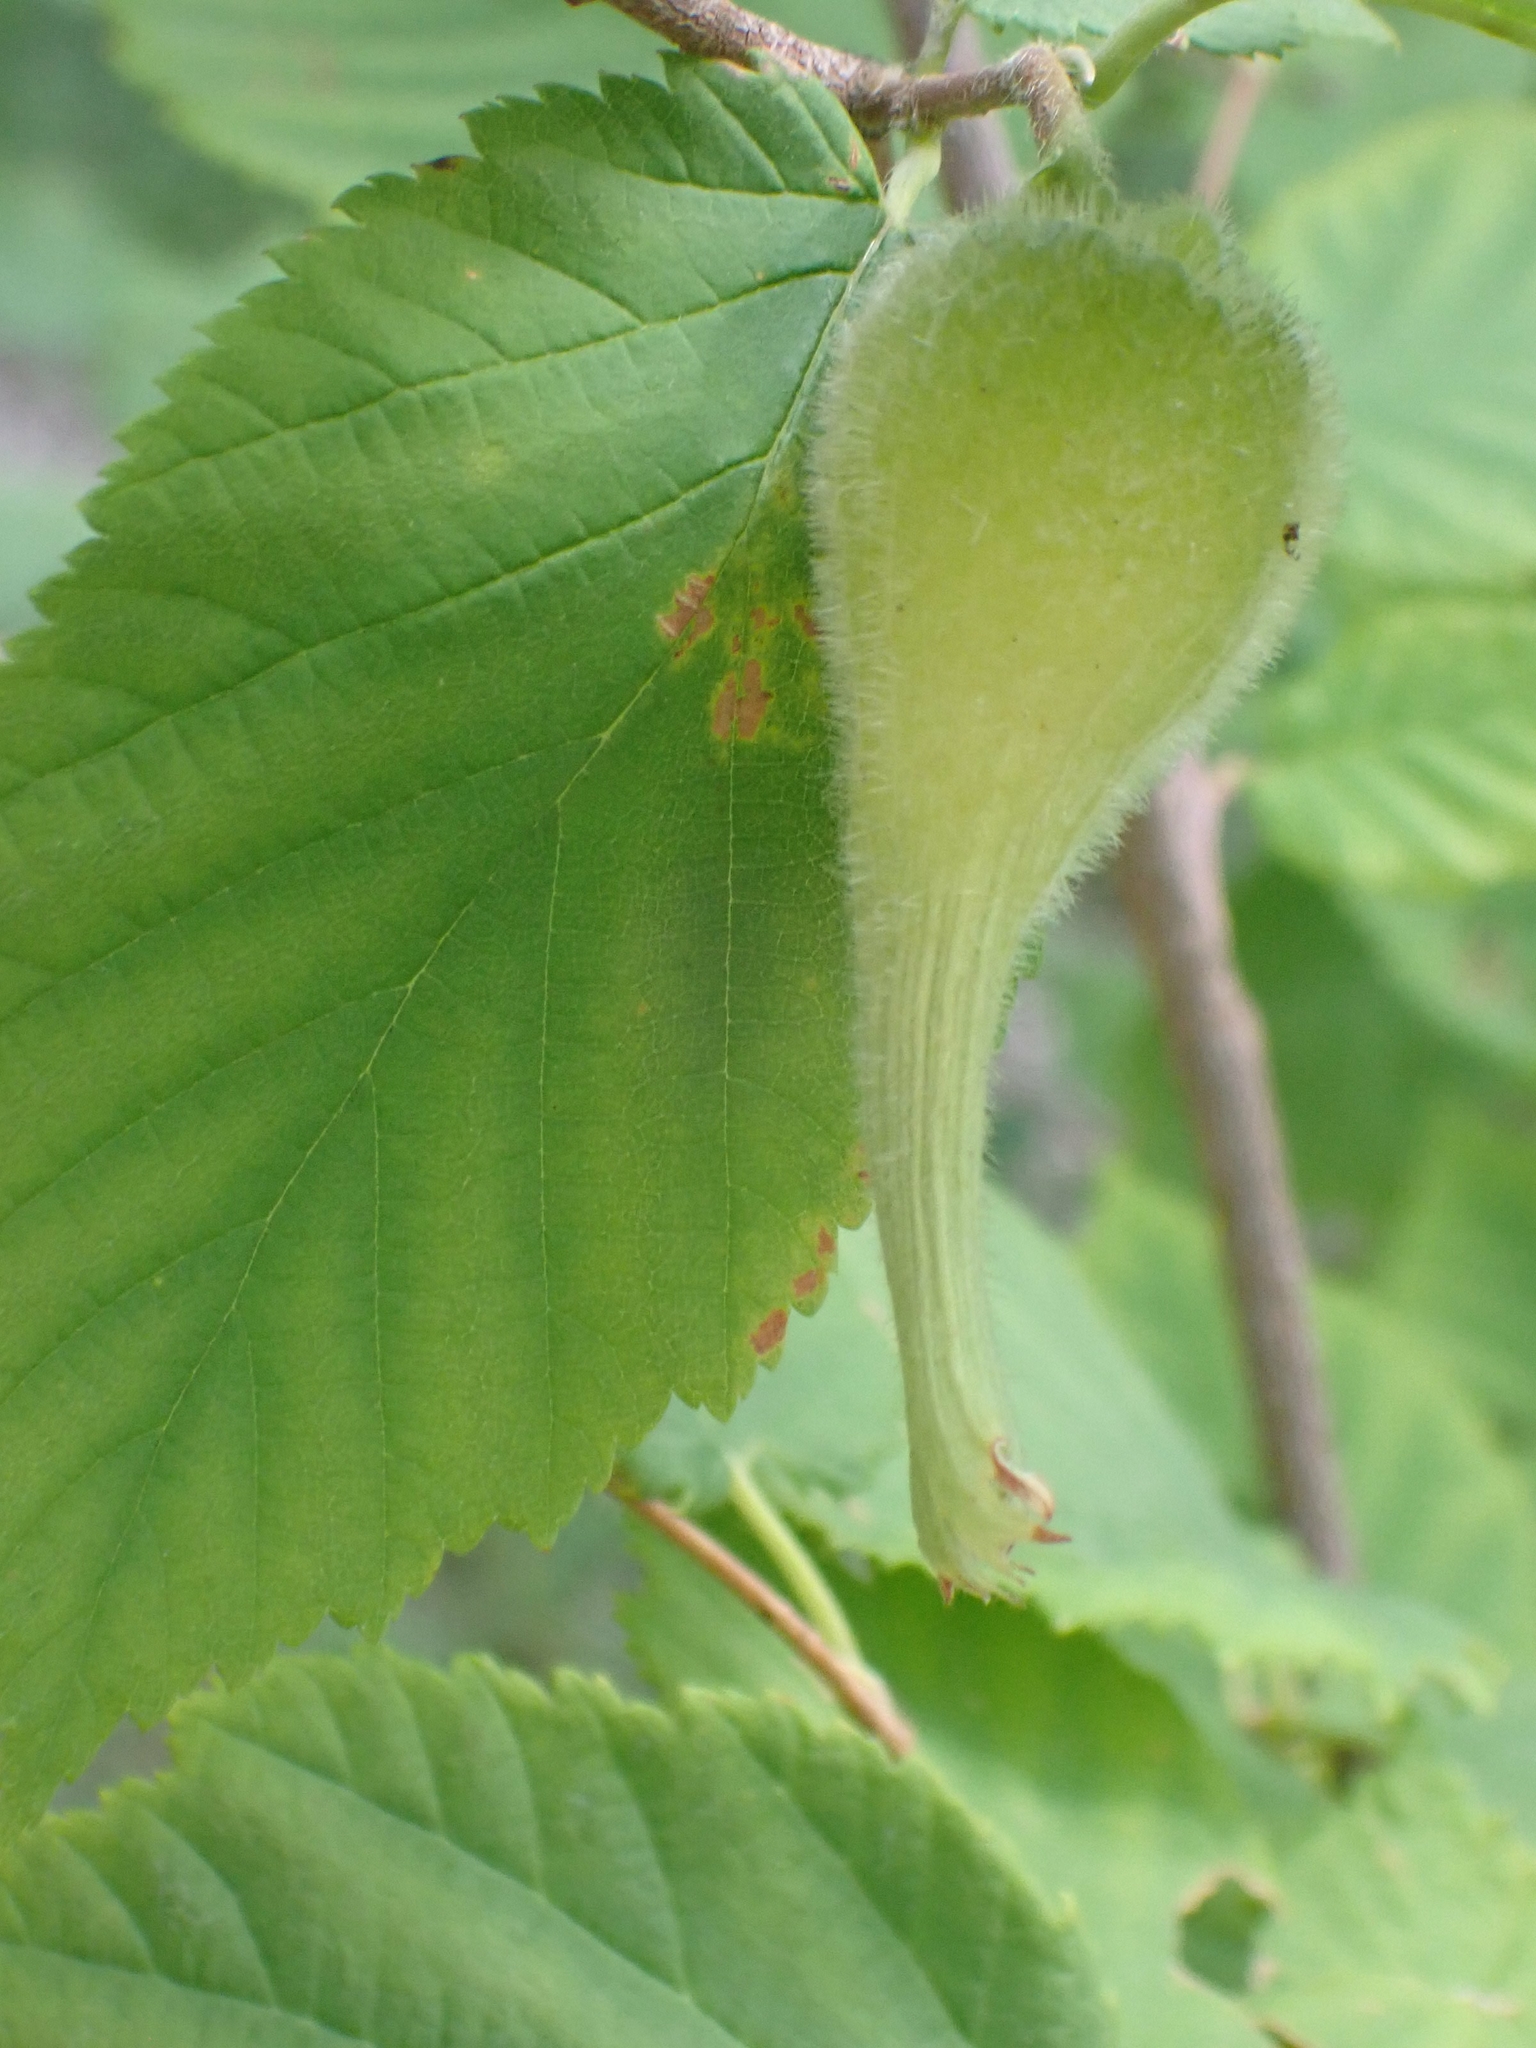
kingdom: Plantae
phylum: Tracheophyta
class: Magnoliopsida
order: Fagales
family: Betulaceae
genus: Corylus
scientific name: Corylus cornuta
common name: Beaked hazel
